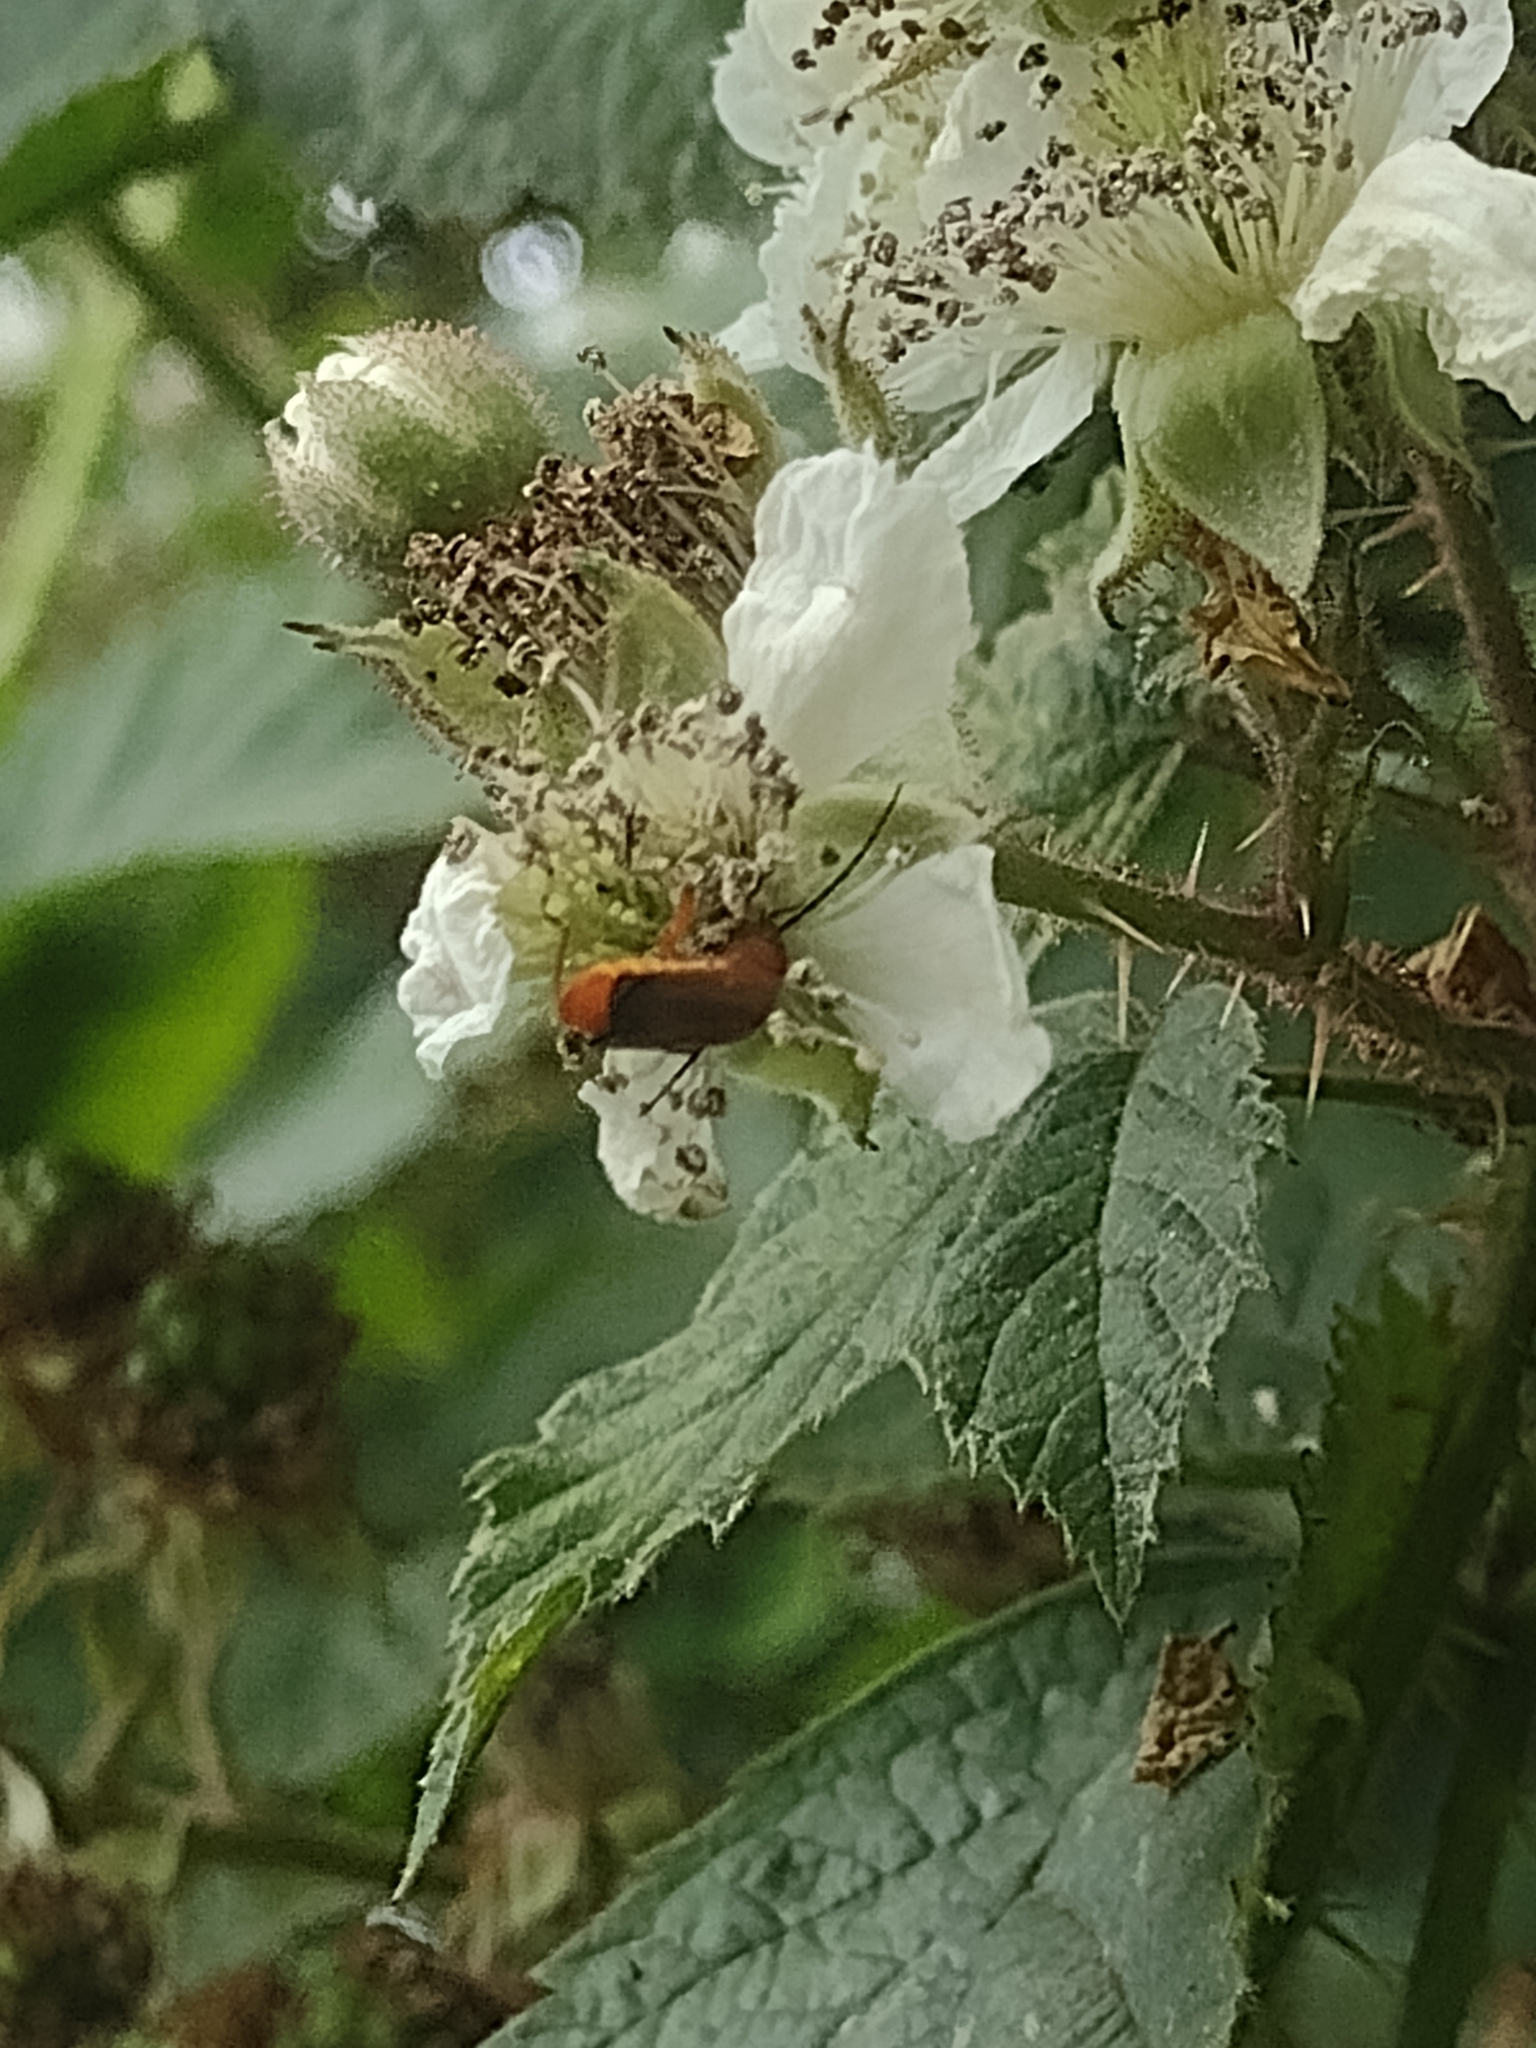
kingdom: Animalia
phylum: Arthropoda
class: Insecta
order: Coleoptera
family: Cantharidae
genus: Rhagonycha
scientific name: Rhagonycha fulva
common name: Common red soldier beetle
